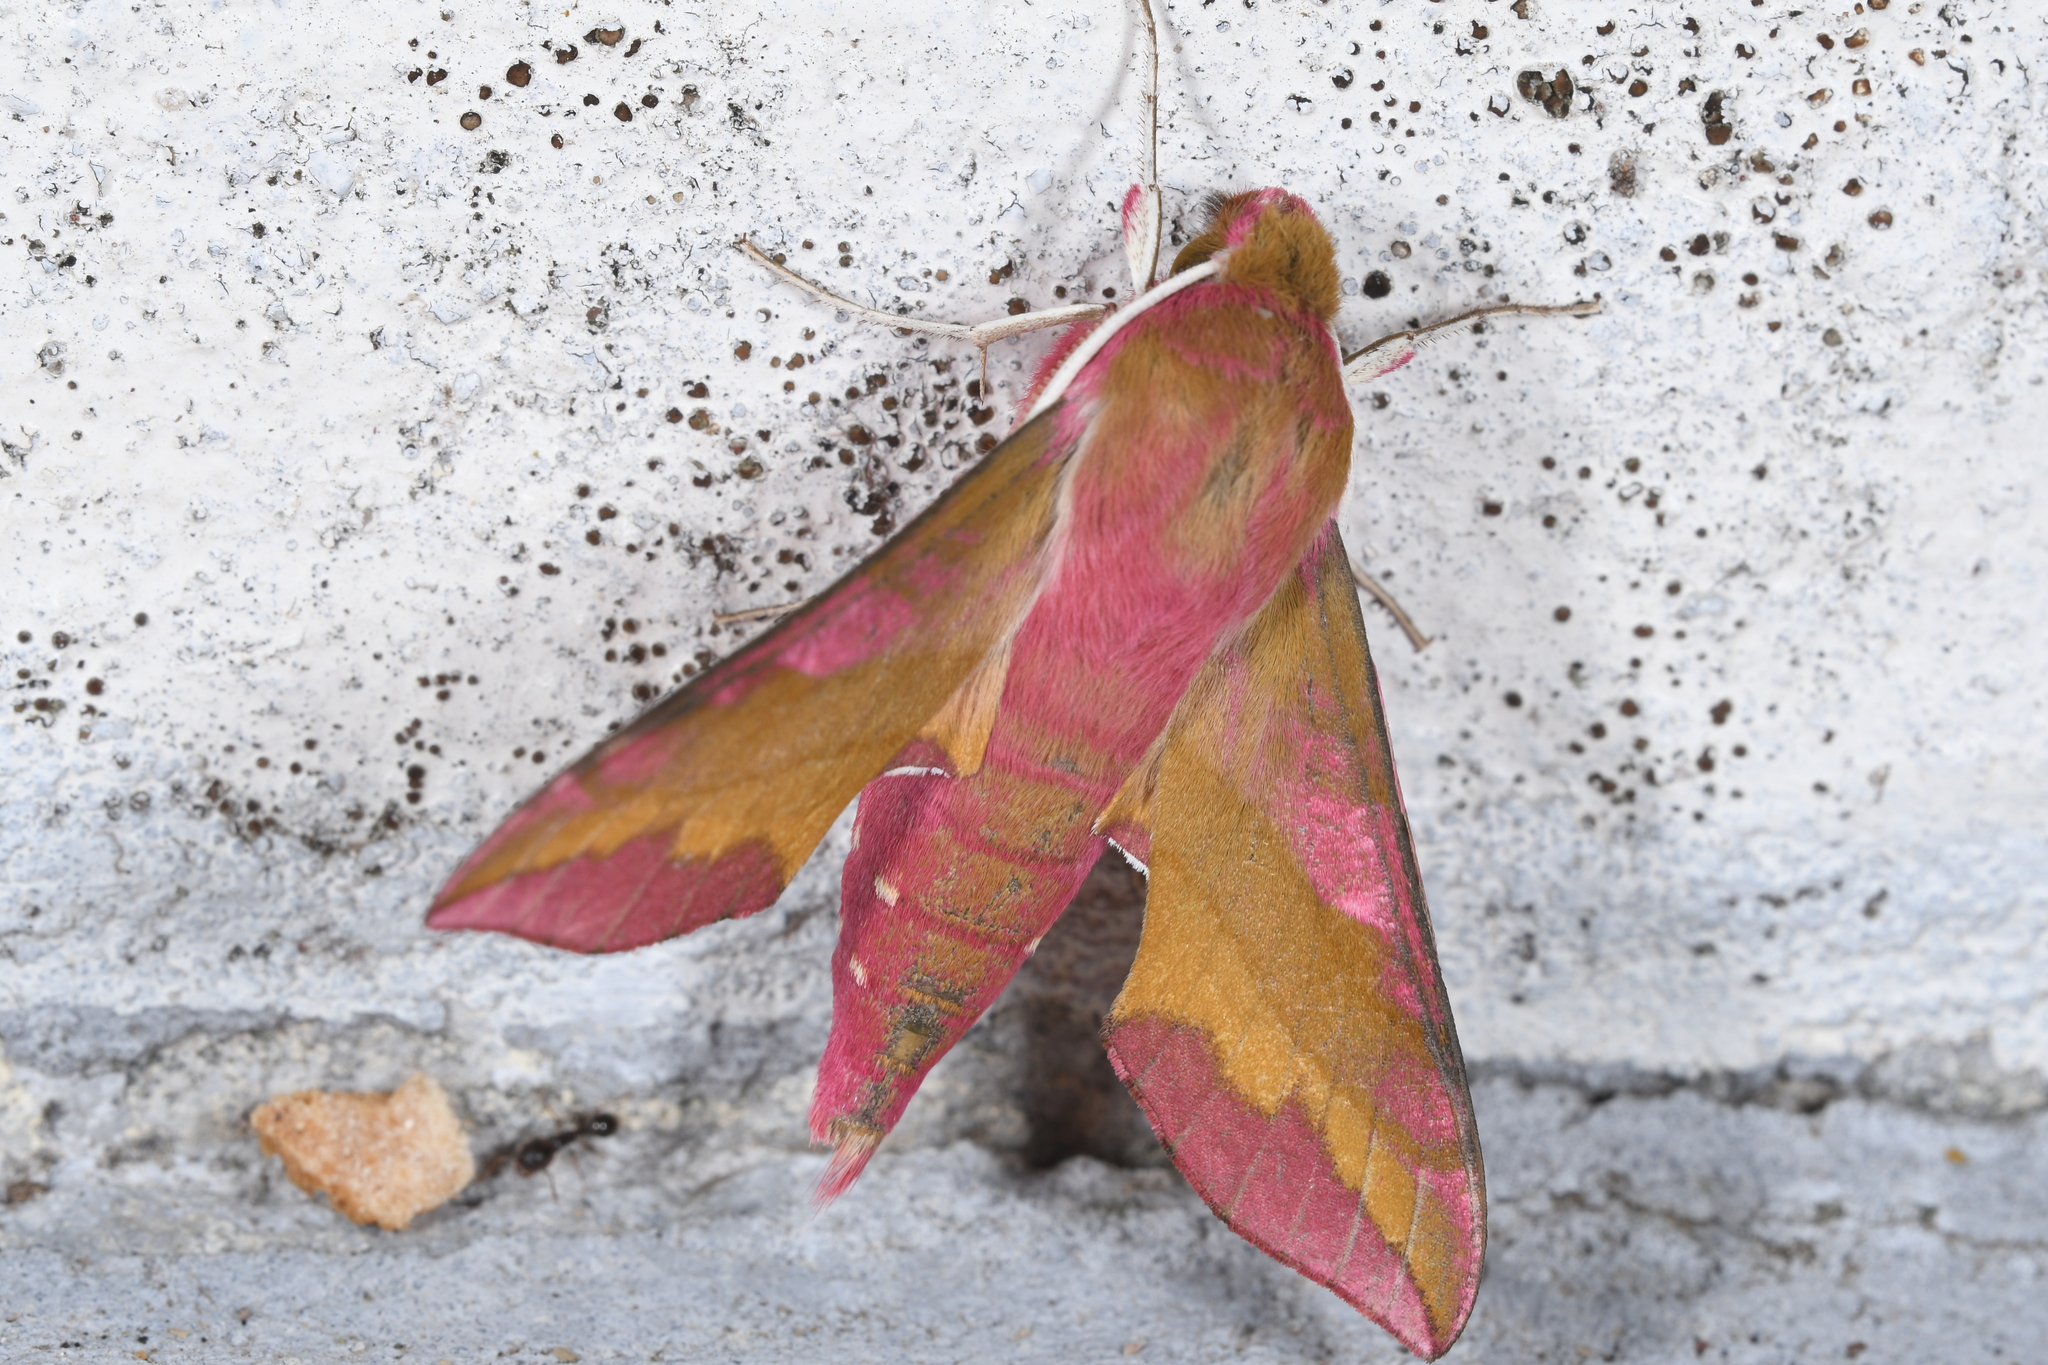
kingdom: Animalia
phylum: Arthropoda
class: Insecta
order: Lepidoptera
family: Sphingidae
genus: Deilephila
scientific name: Deilephila porcellus
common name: Small elephant hawk-moth
